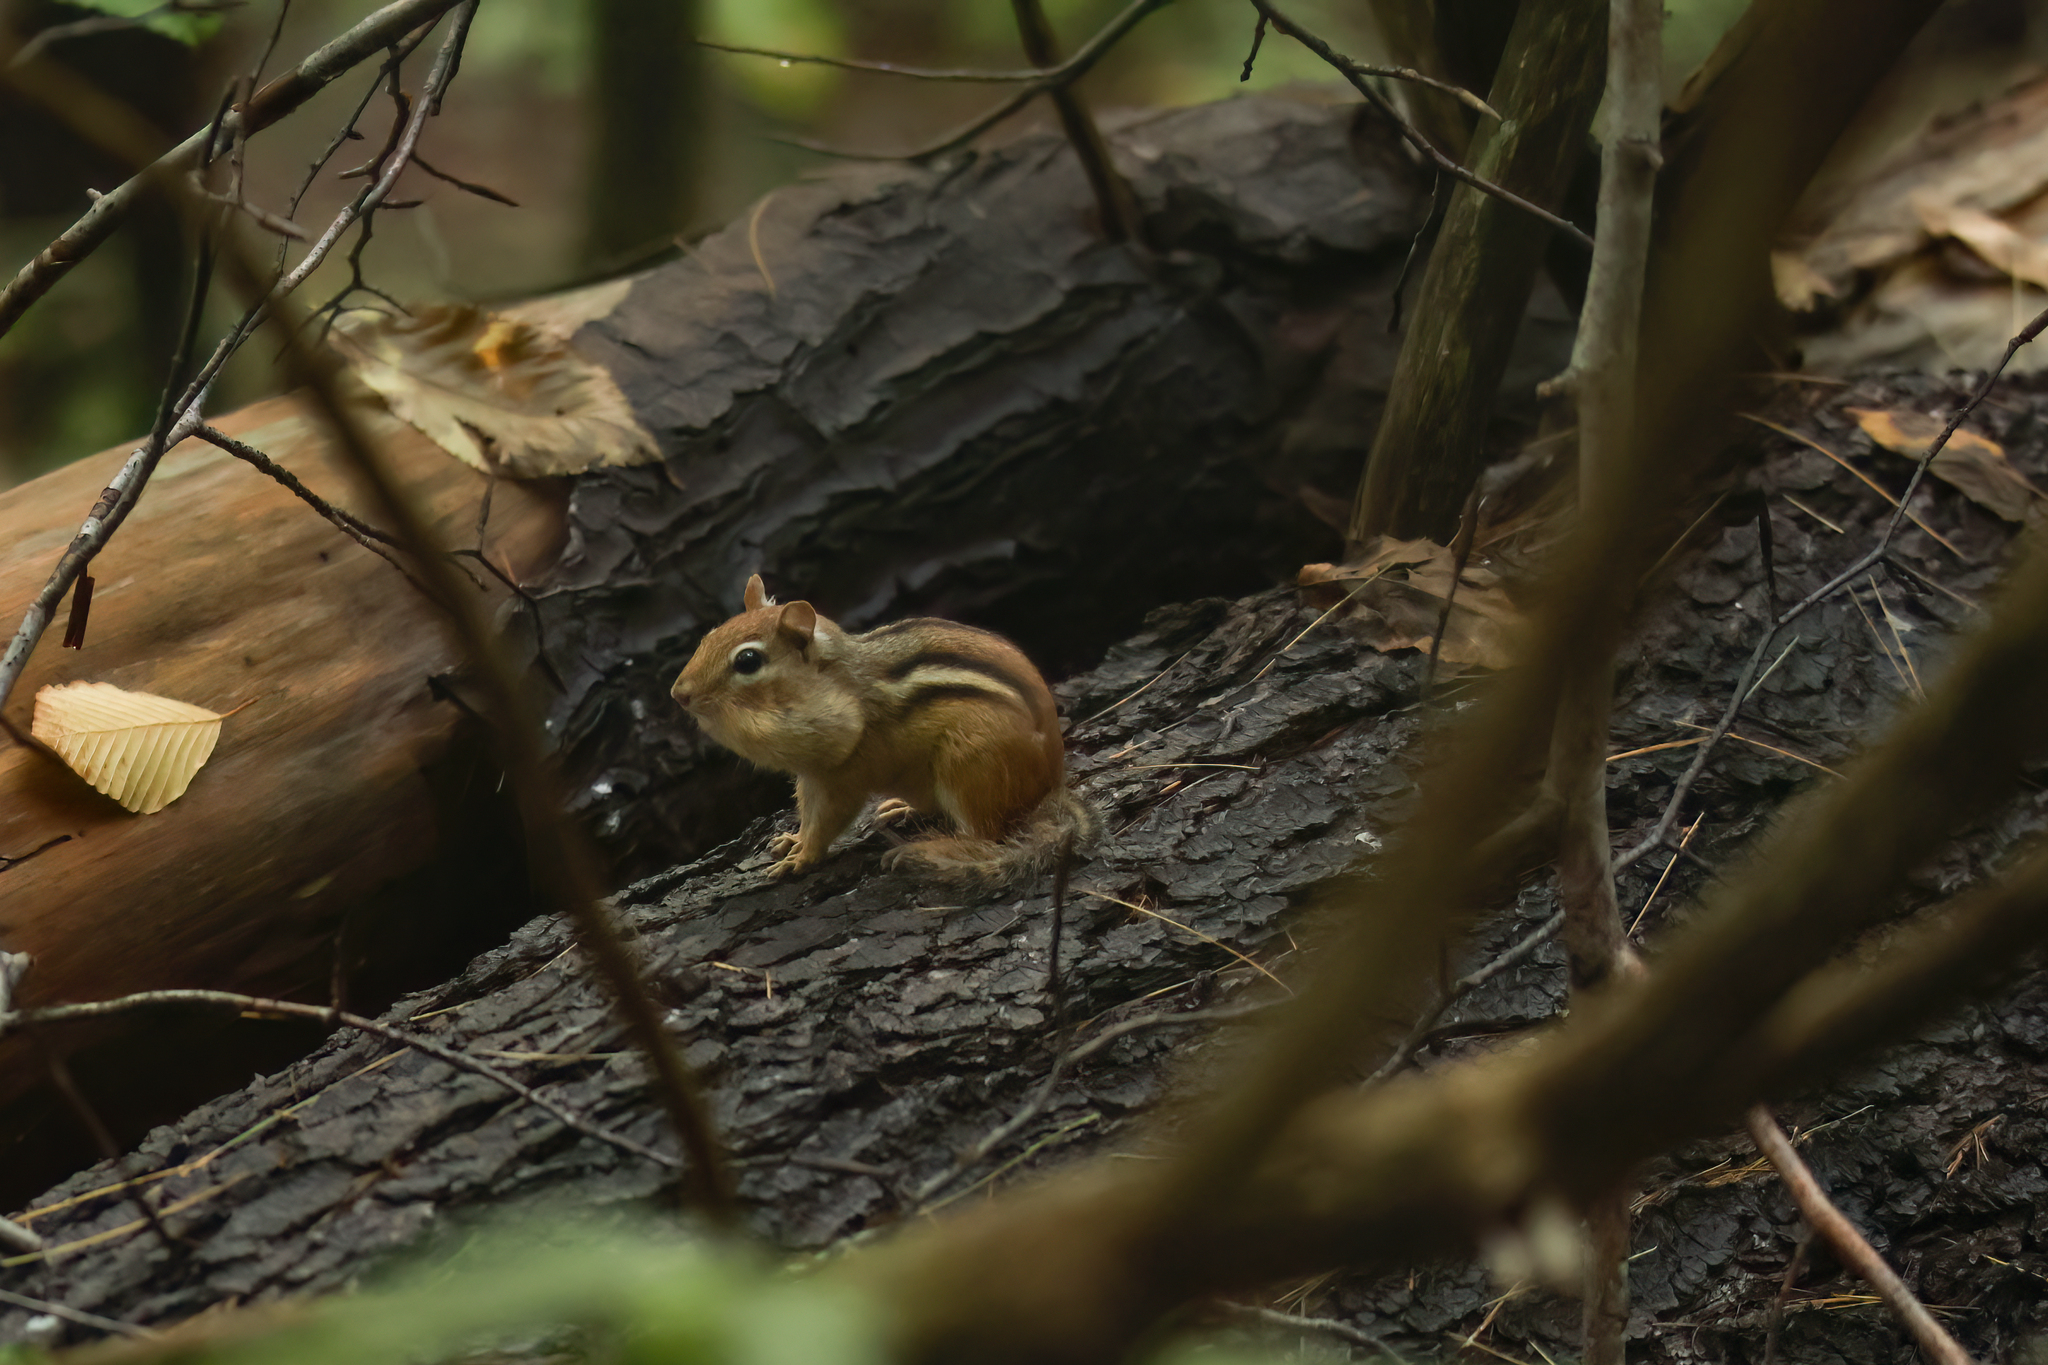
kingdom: Animalia
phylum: Chordata
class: Mammalia
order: Rodentia
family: Sciuridae
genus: Tamias
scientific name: Tamias striatus
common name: Eastern chipmunk
